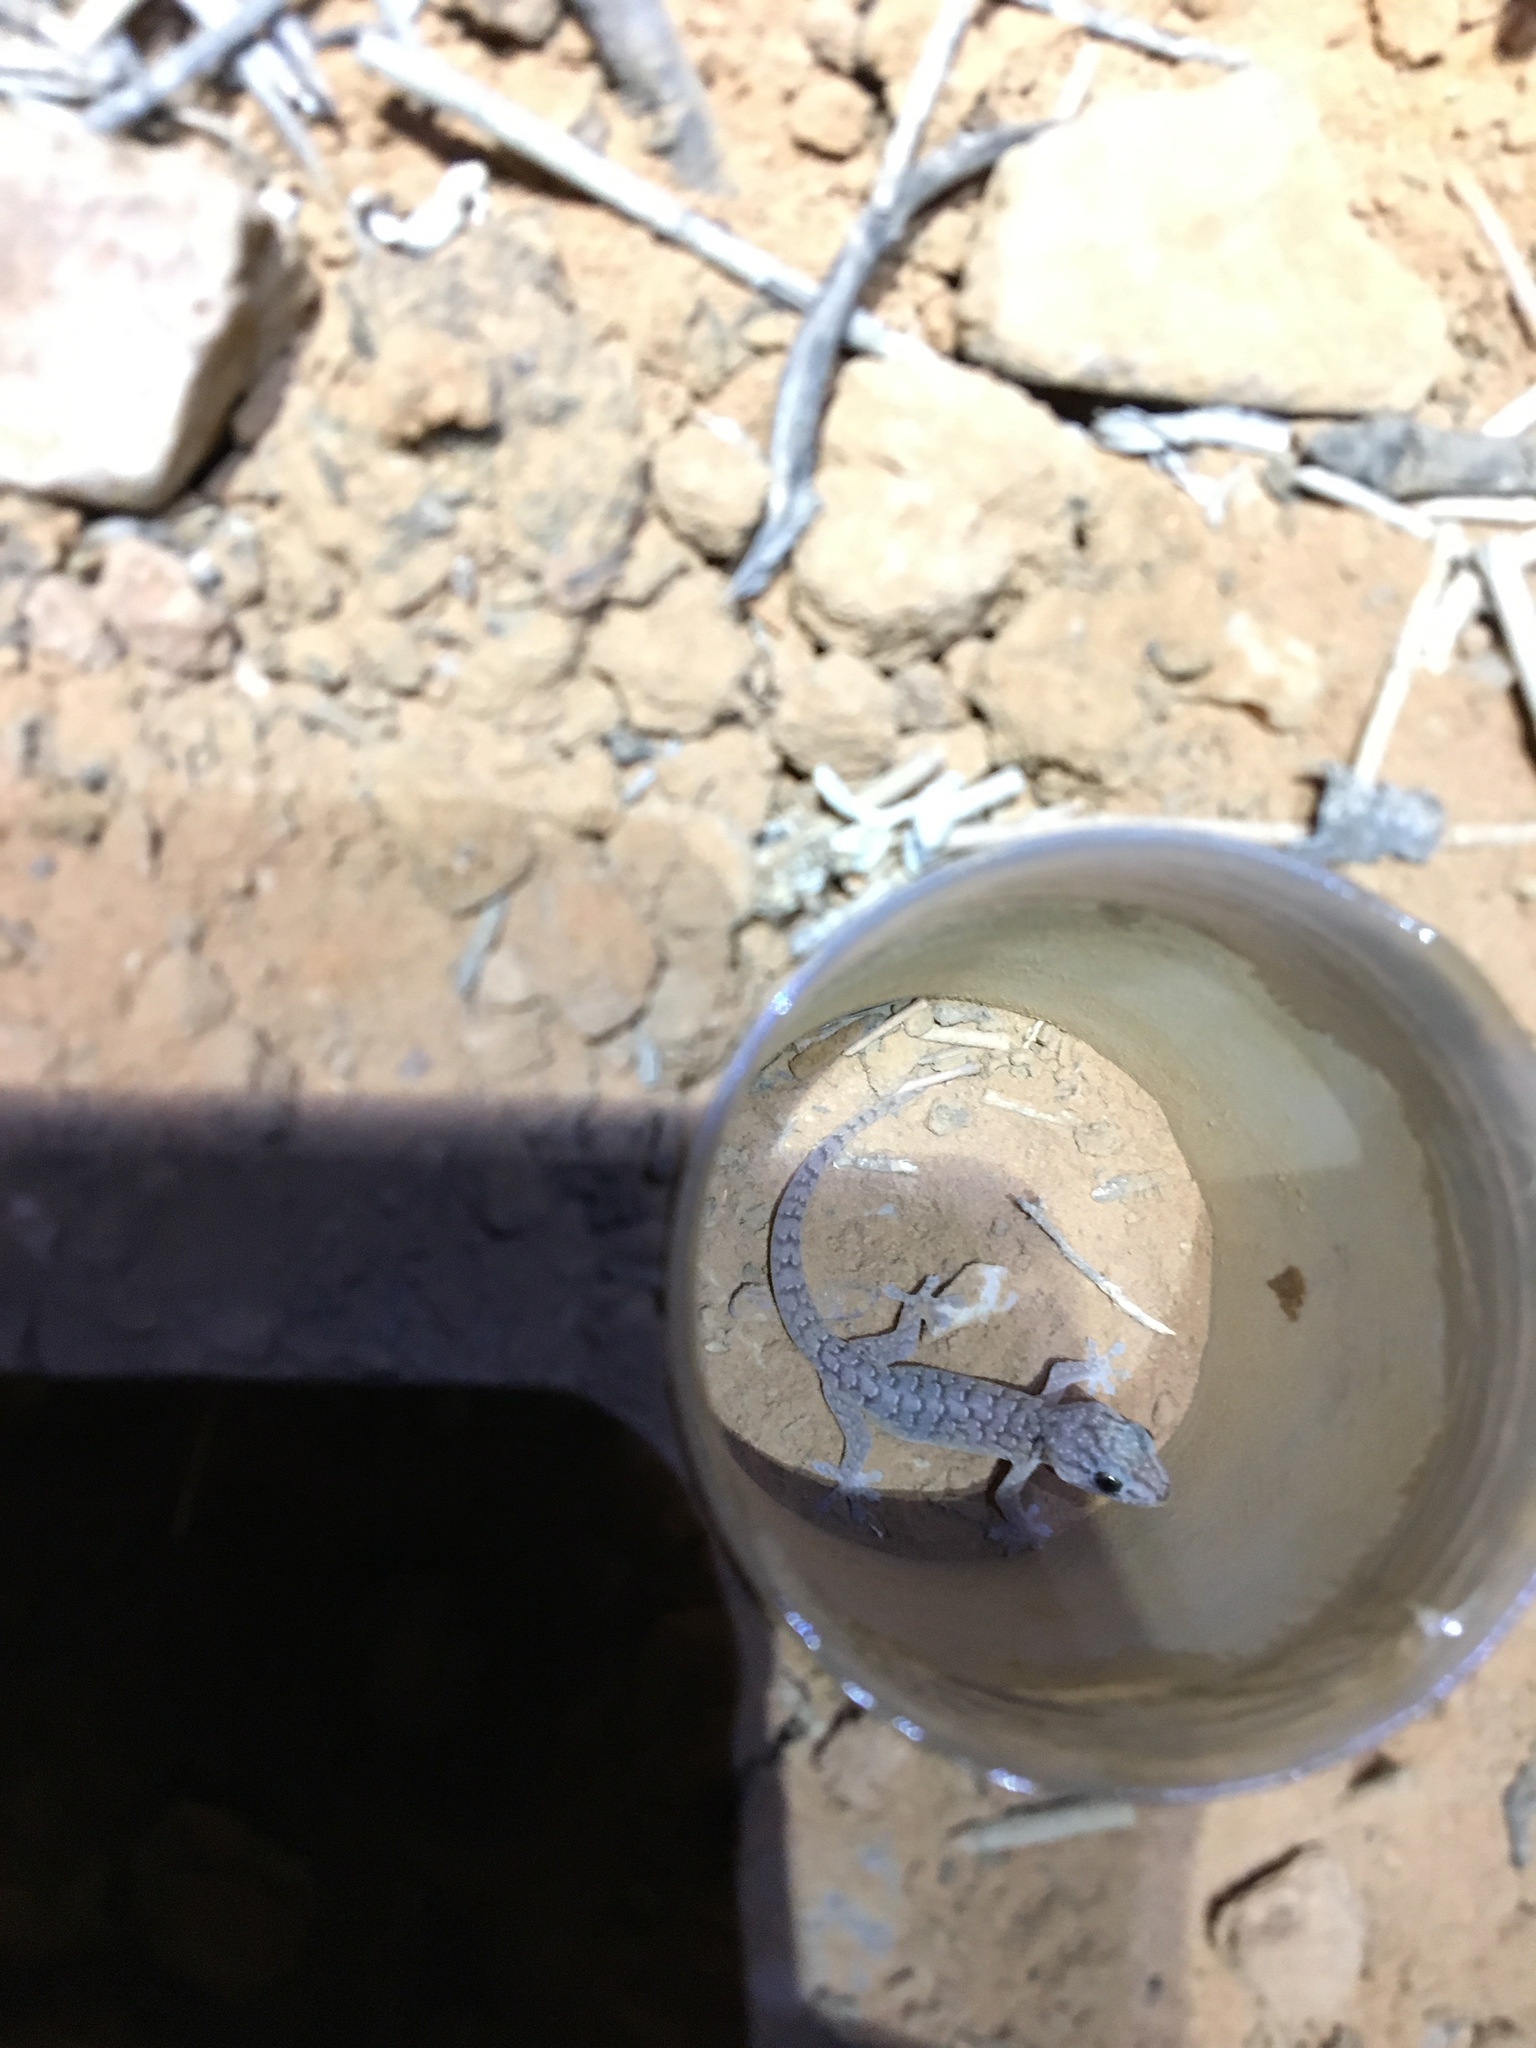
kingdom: Animalia
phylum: Chordata
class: Squamata
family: Gekkonidae
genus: Gehyra
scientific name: Gehyra versicolor
